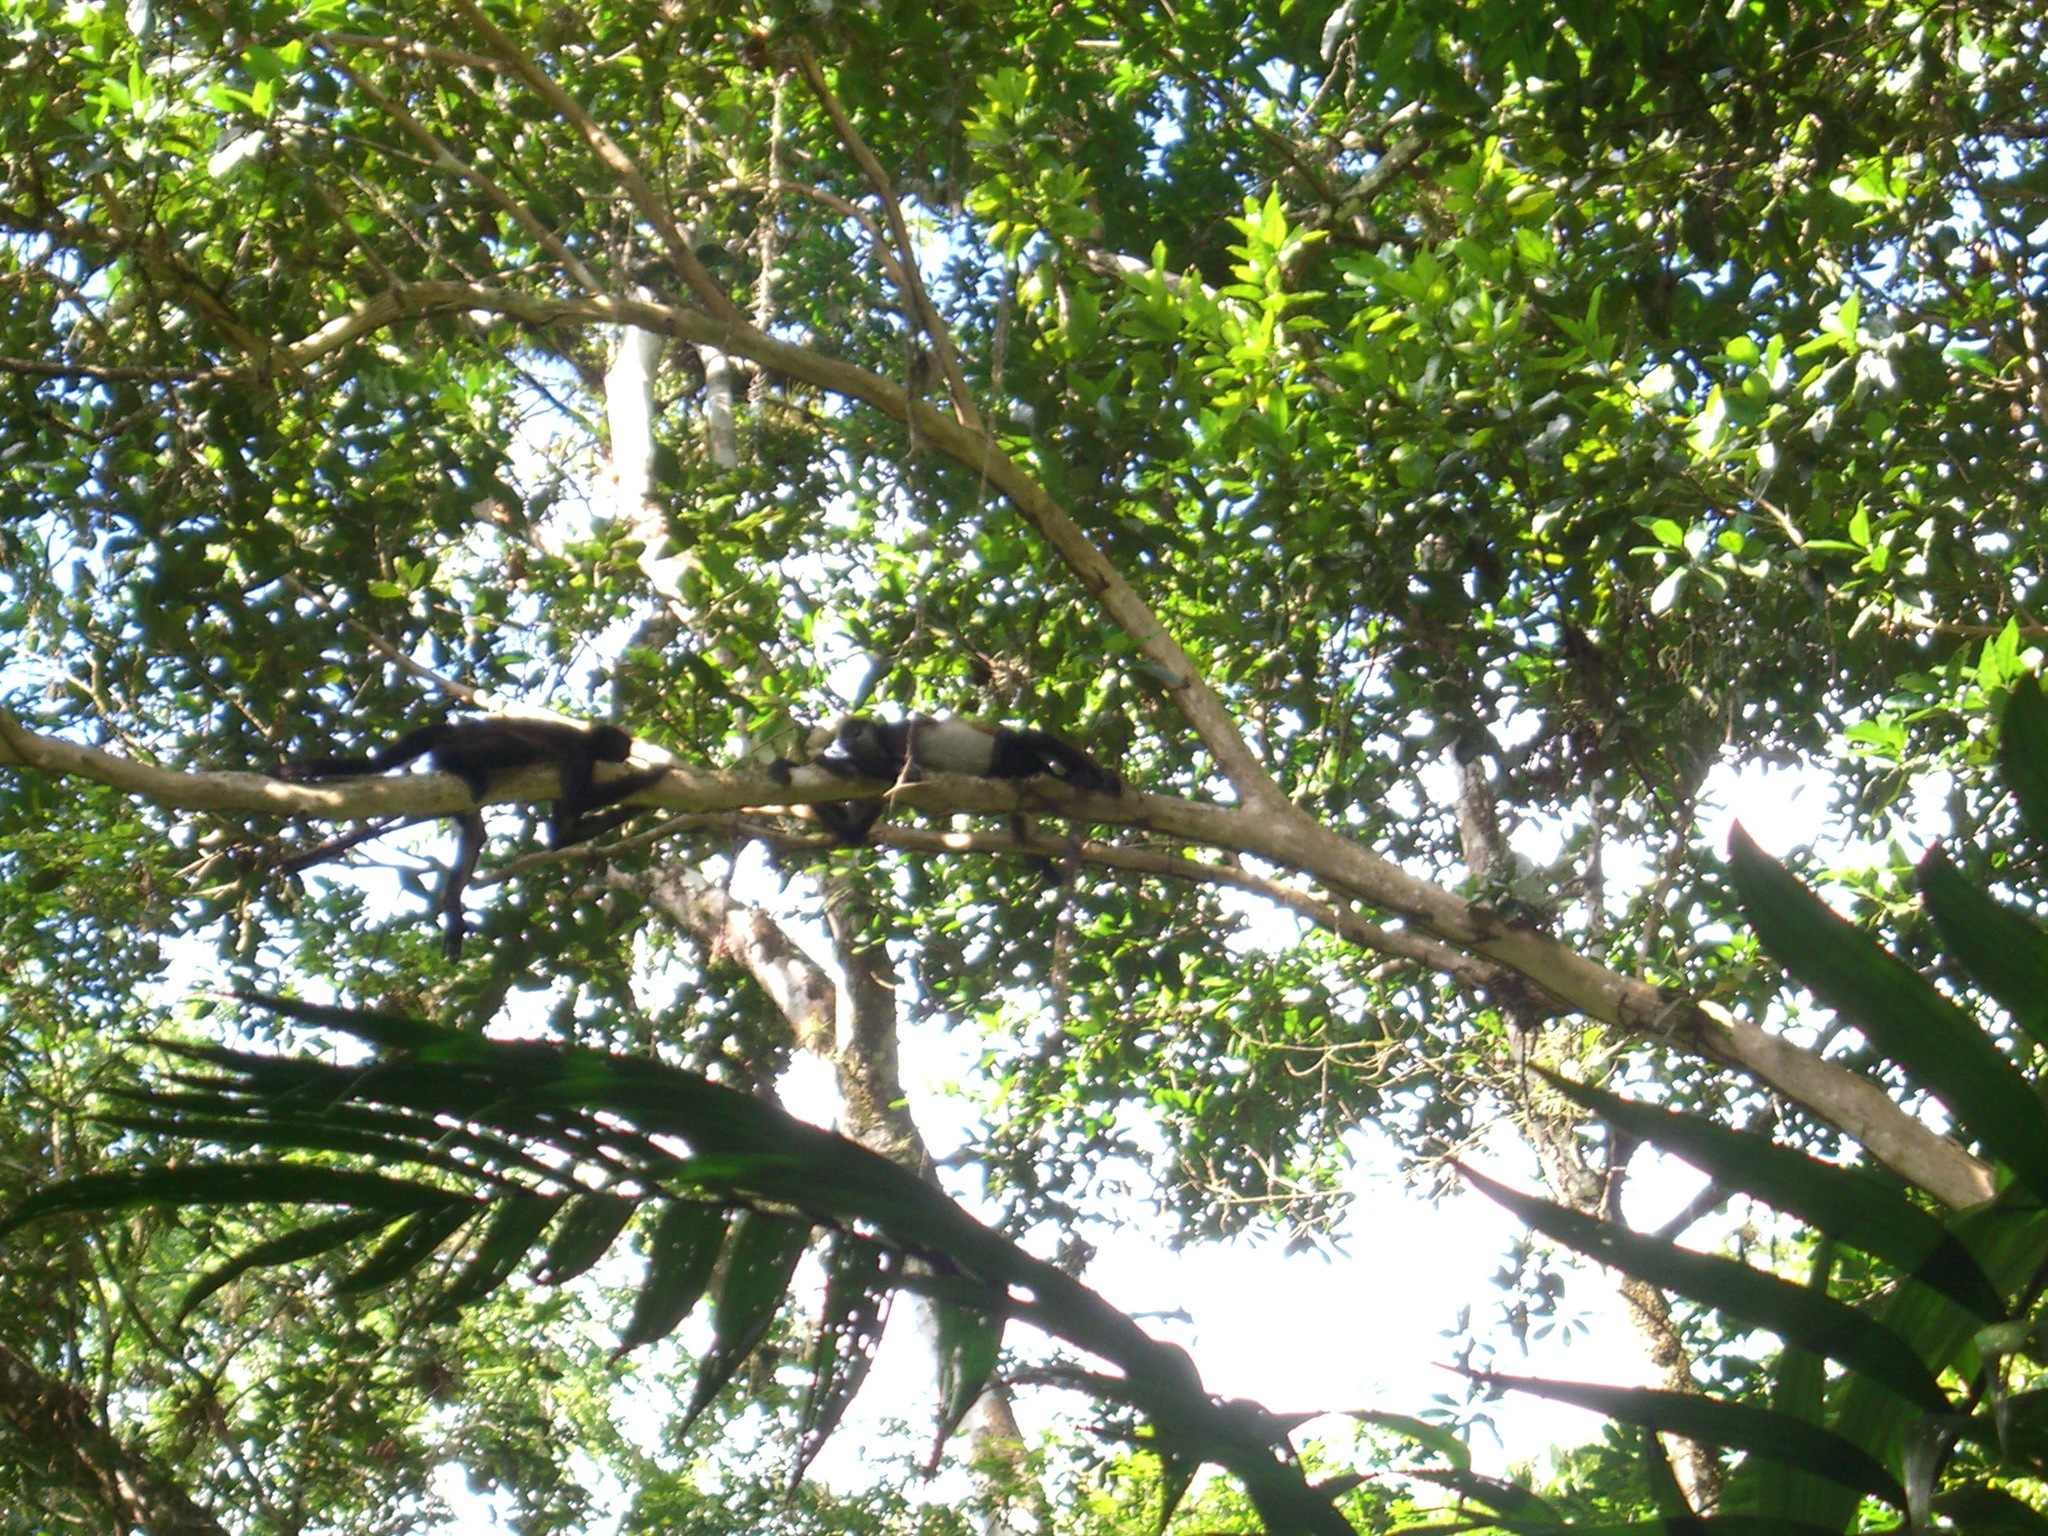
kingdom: Animalia
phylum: Chordata
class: Mammalia
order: Primates
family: Atelidae
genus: Ateles
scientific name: Ateles geoffroyi
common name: Black-handed spider monkey
